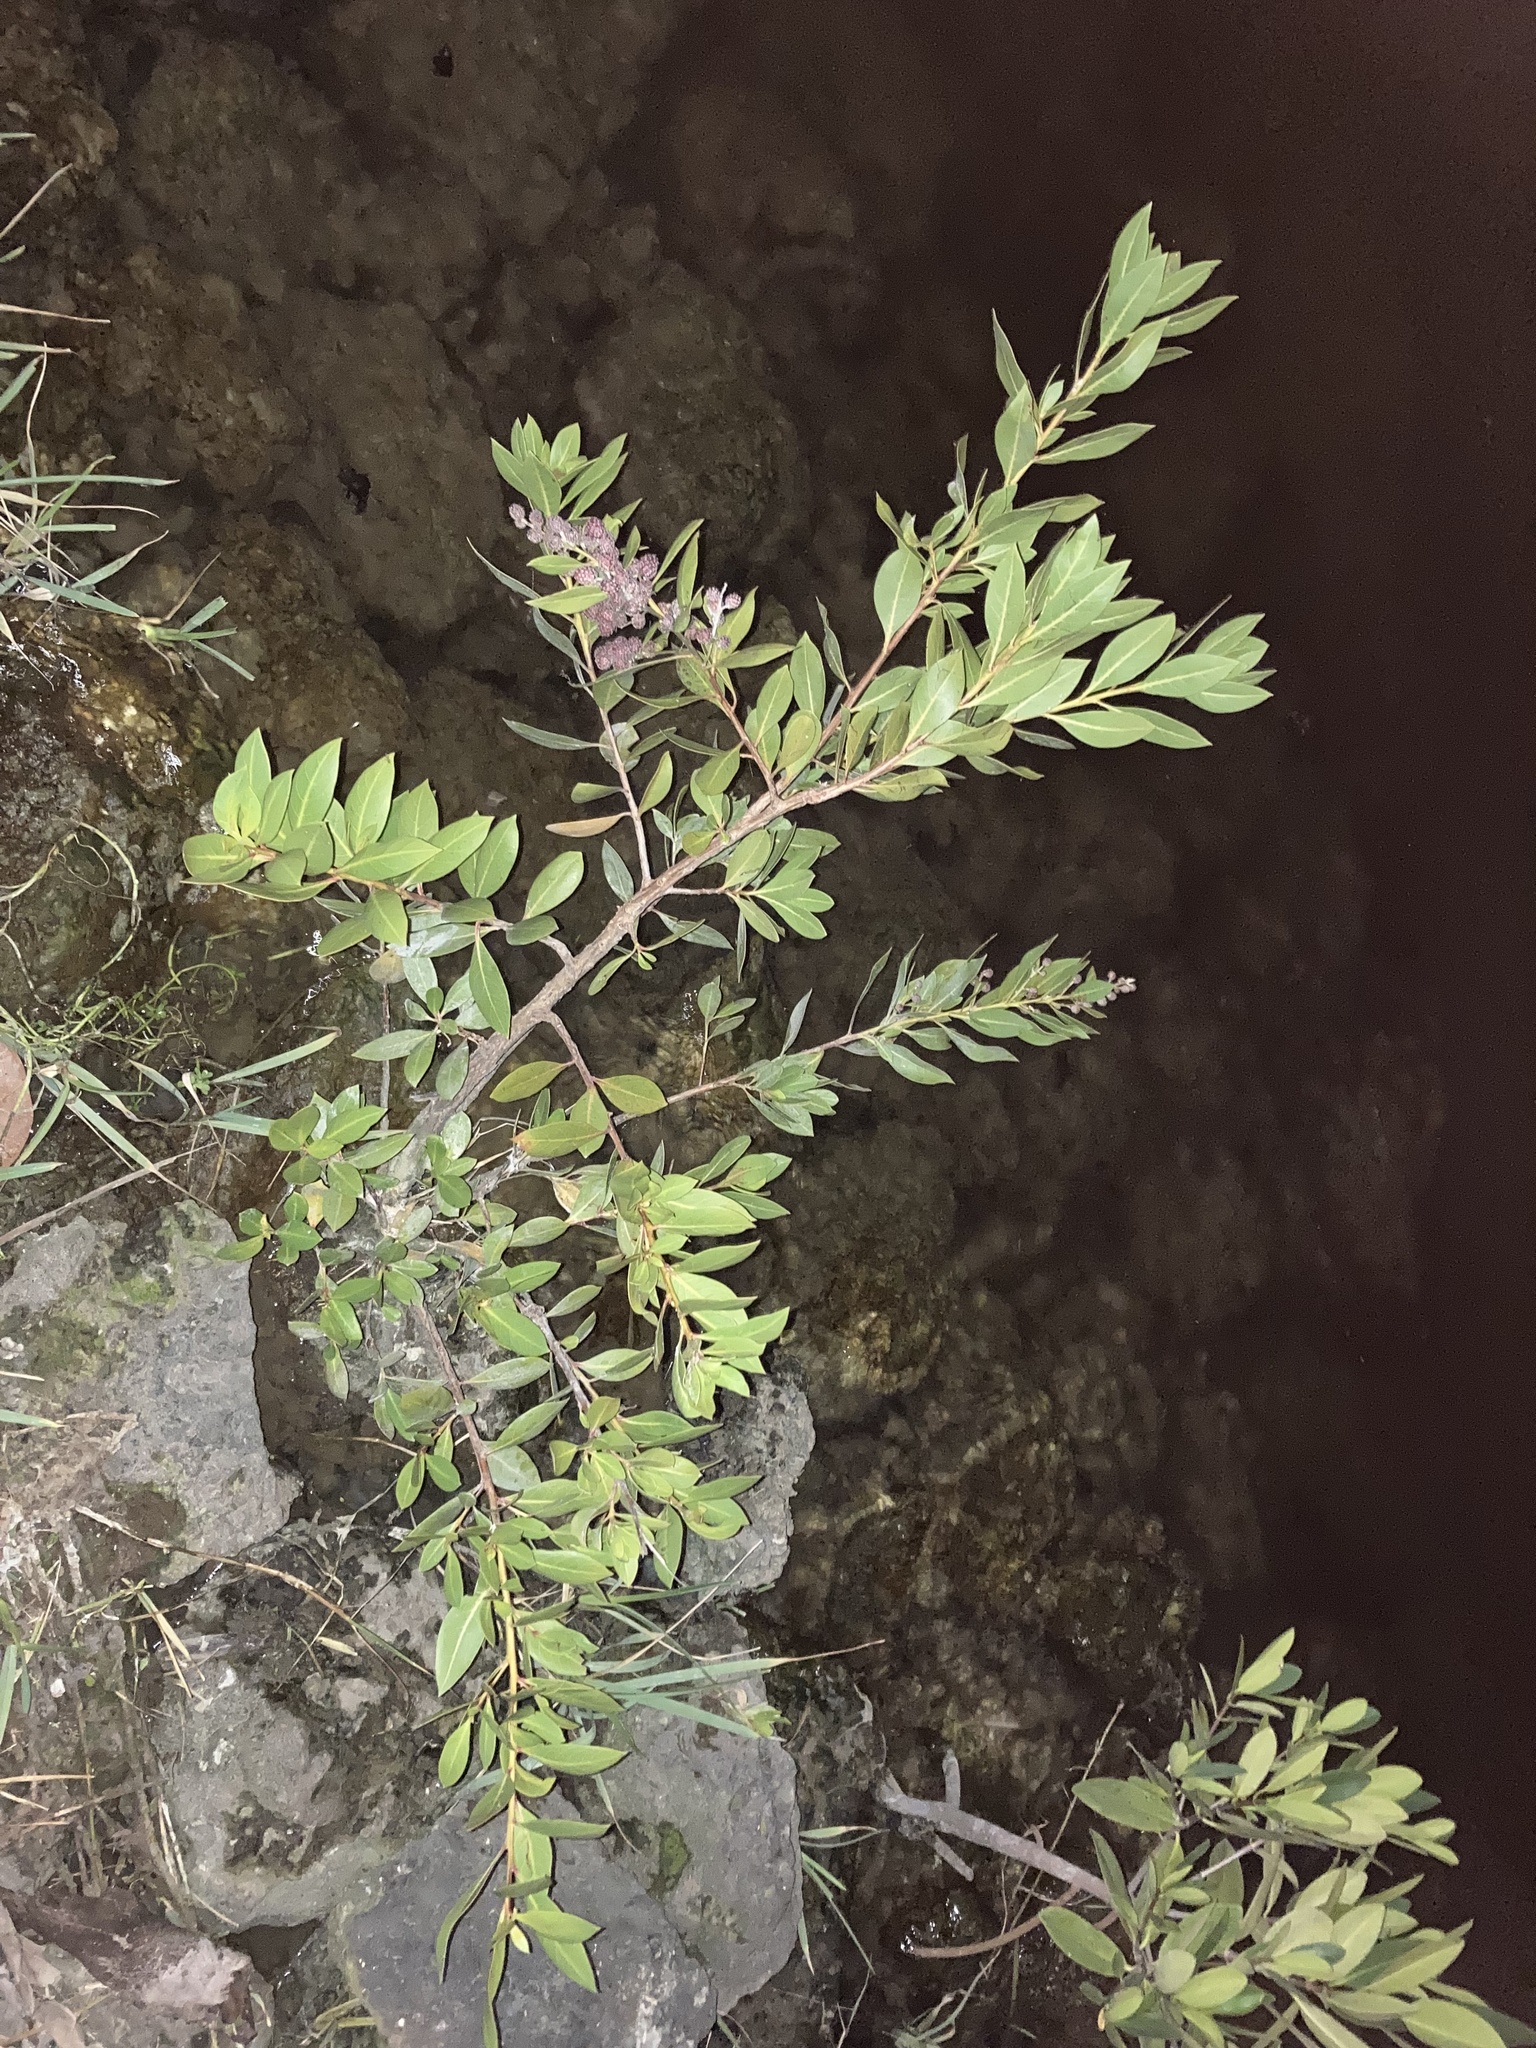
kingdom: Plantae
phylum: Tracheophyta
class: Magnoliopsida
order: Myrtales
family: Combretaceae
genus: Conocarpus
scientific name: Conocarpus erectus
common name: Button mangrove
